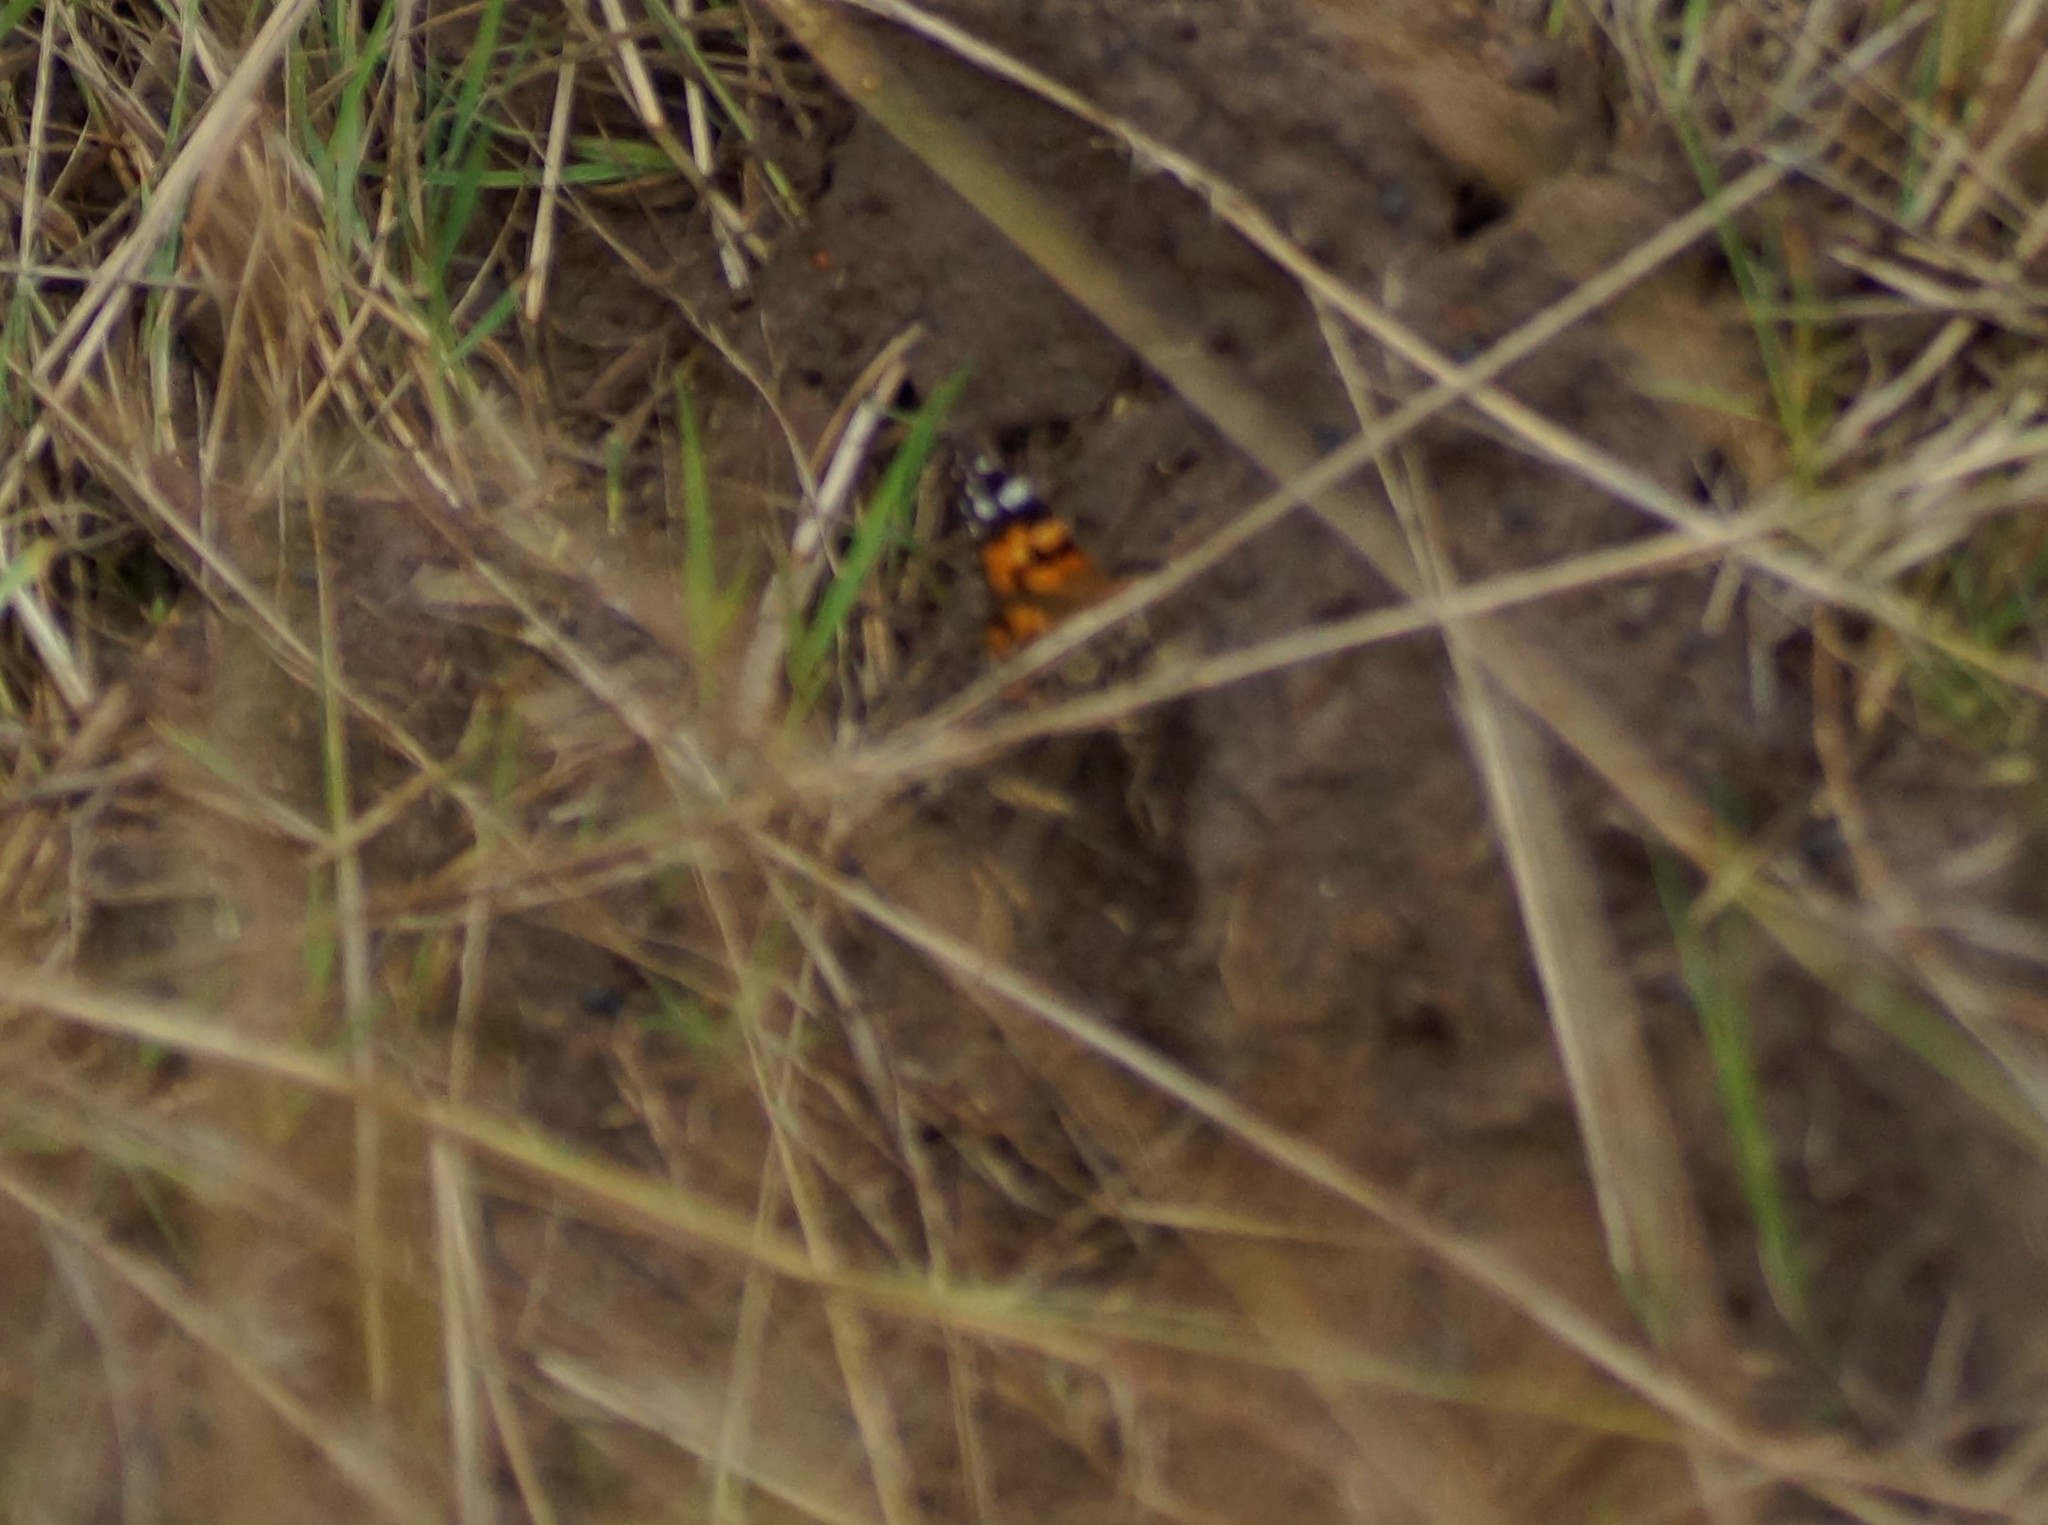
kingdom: Animalia
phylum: Arthropoda
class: Insecta
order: Lepidoptera
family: Nymphalidae
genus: Vanessa
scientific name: Vanessa kershawi
